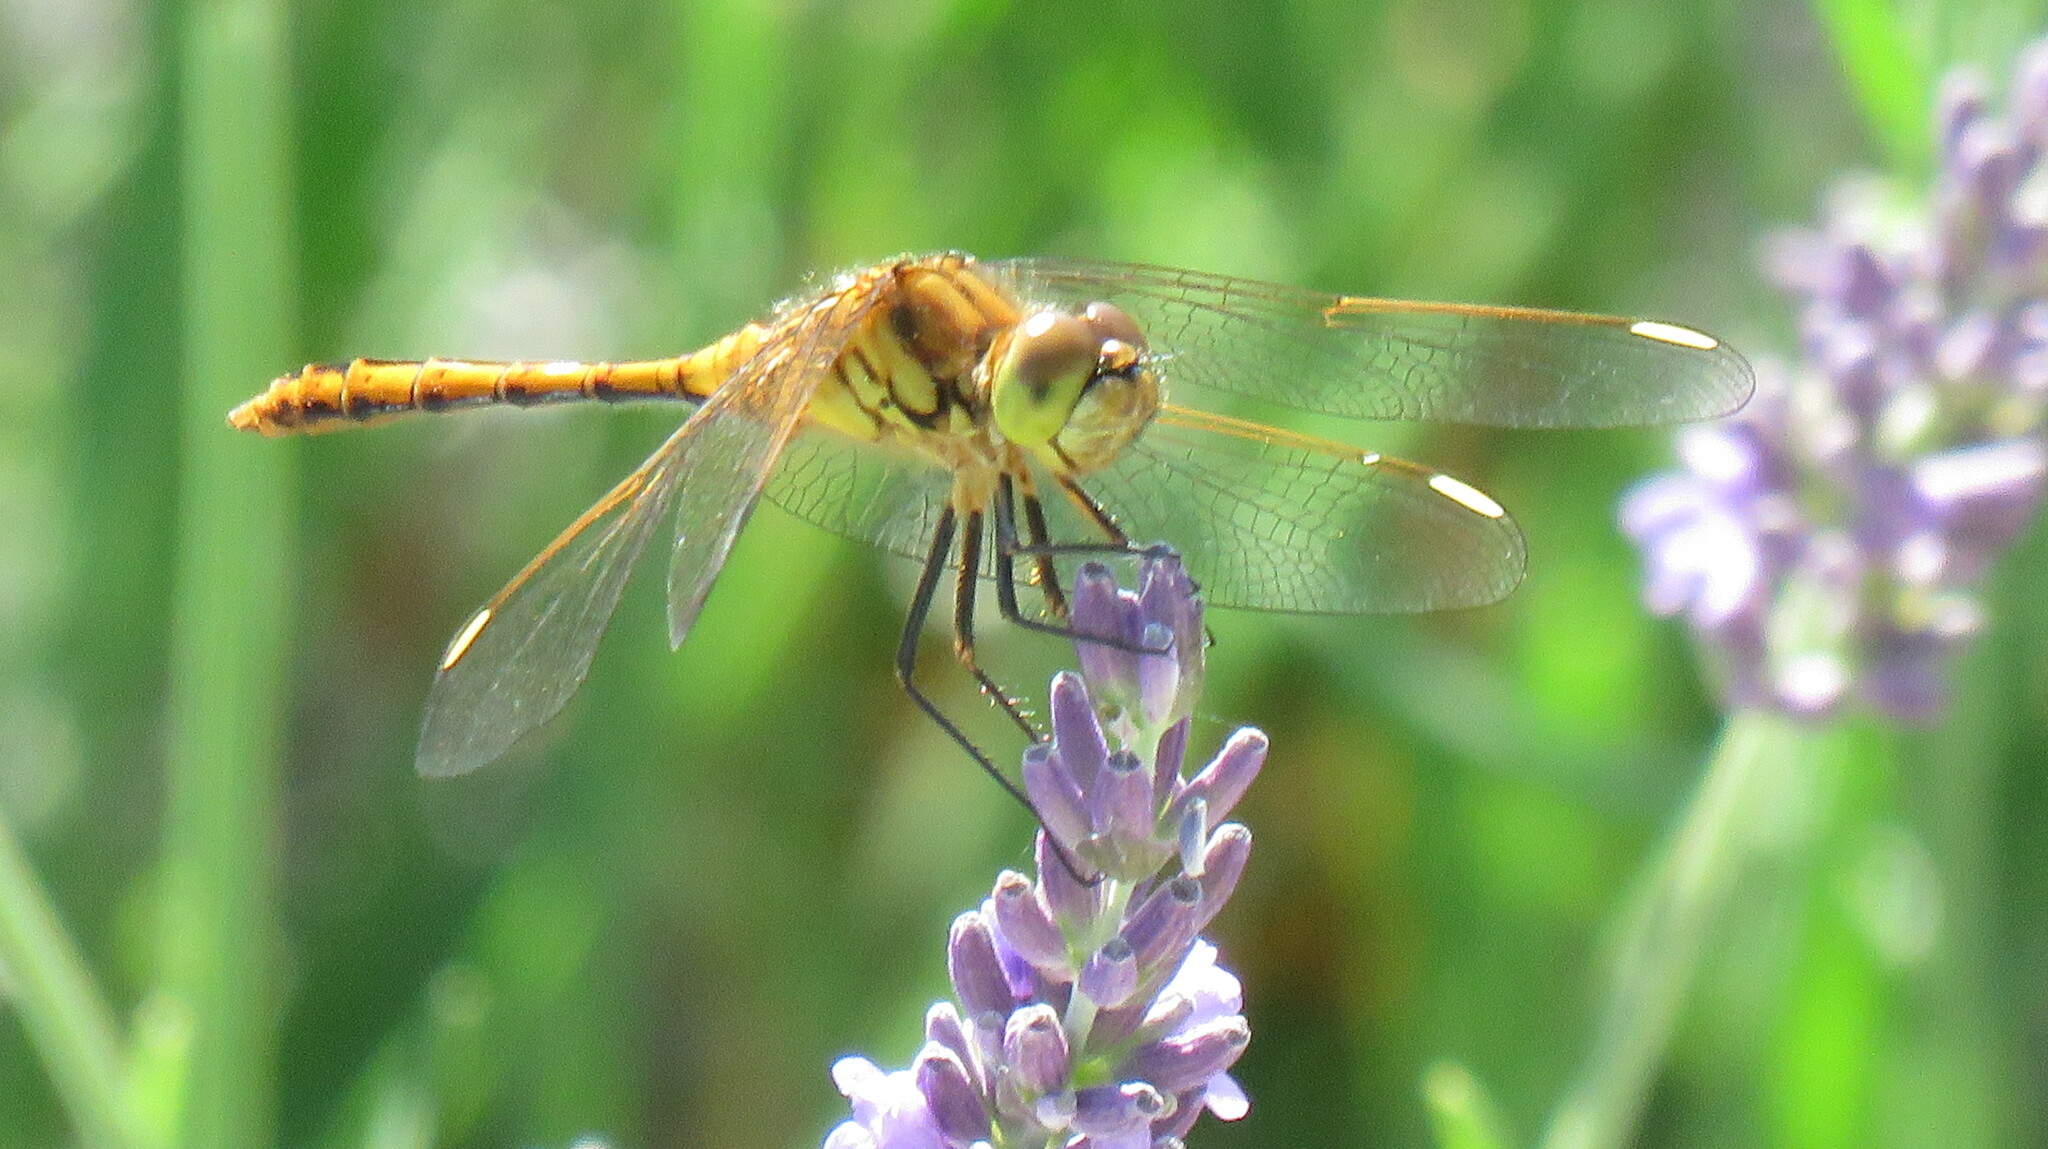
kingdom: Animalia
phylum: Arthropoda
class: Insecta
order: Odonata
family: Libellulidae
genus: Sympetrum
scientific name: Sympetrum costiferum
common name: Saffron-winged meadowhawk
